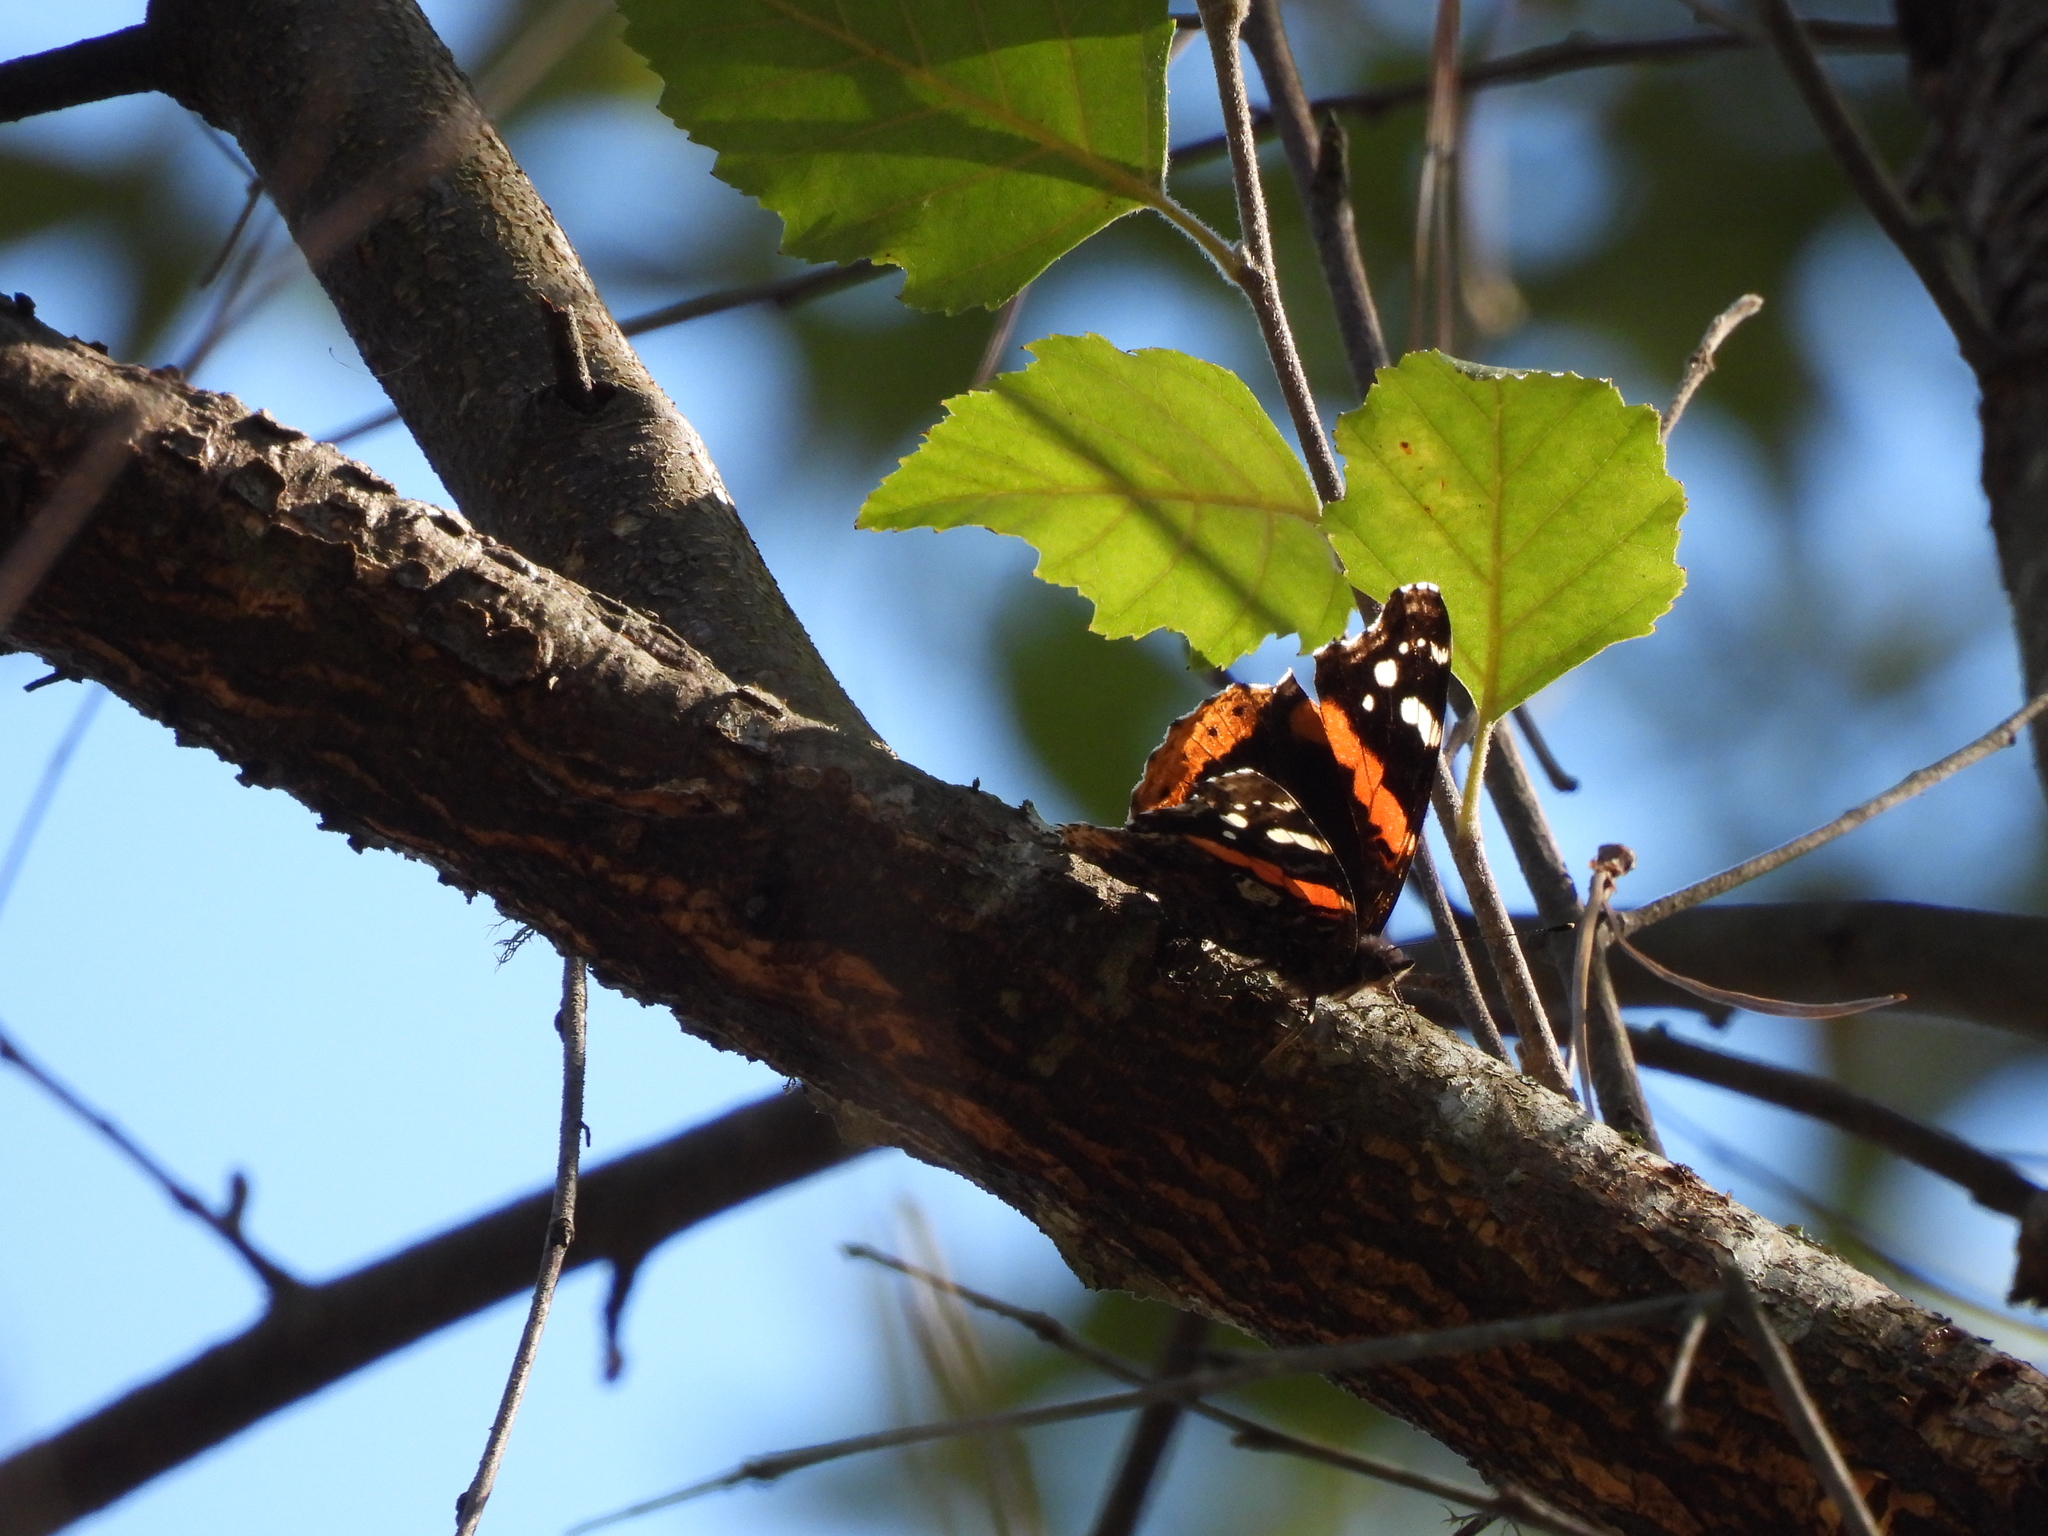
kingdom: Animalia
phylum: Arthropoda
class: Insecta
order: Lepidoptera
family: Nymphalidae
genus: Vanessa
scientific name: Vanessa atalanta
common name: Red admiral
